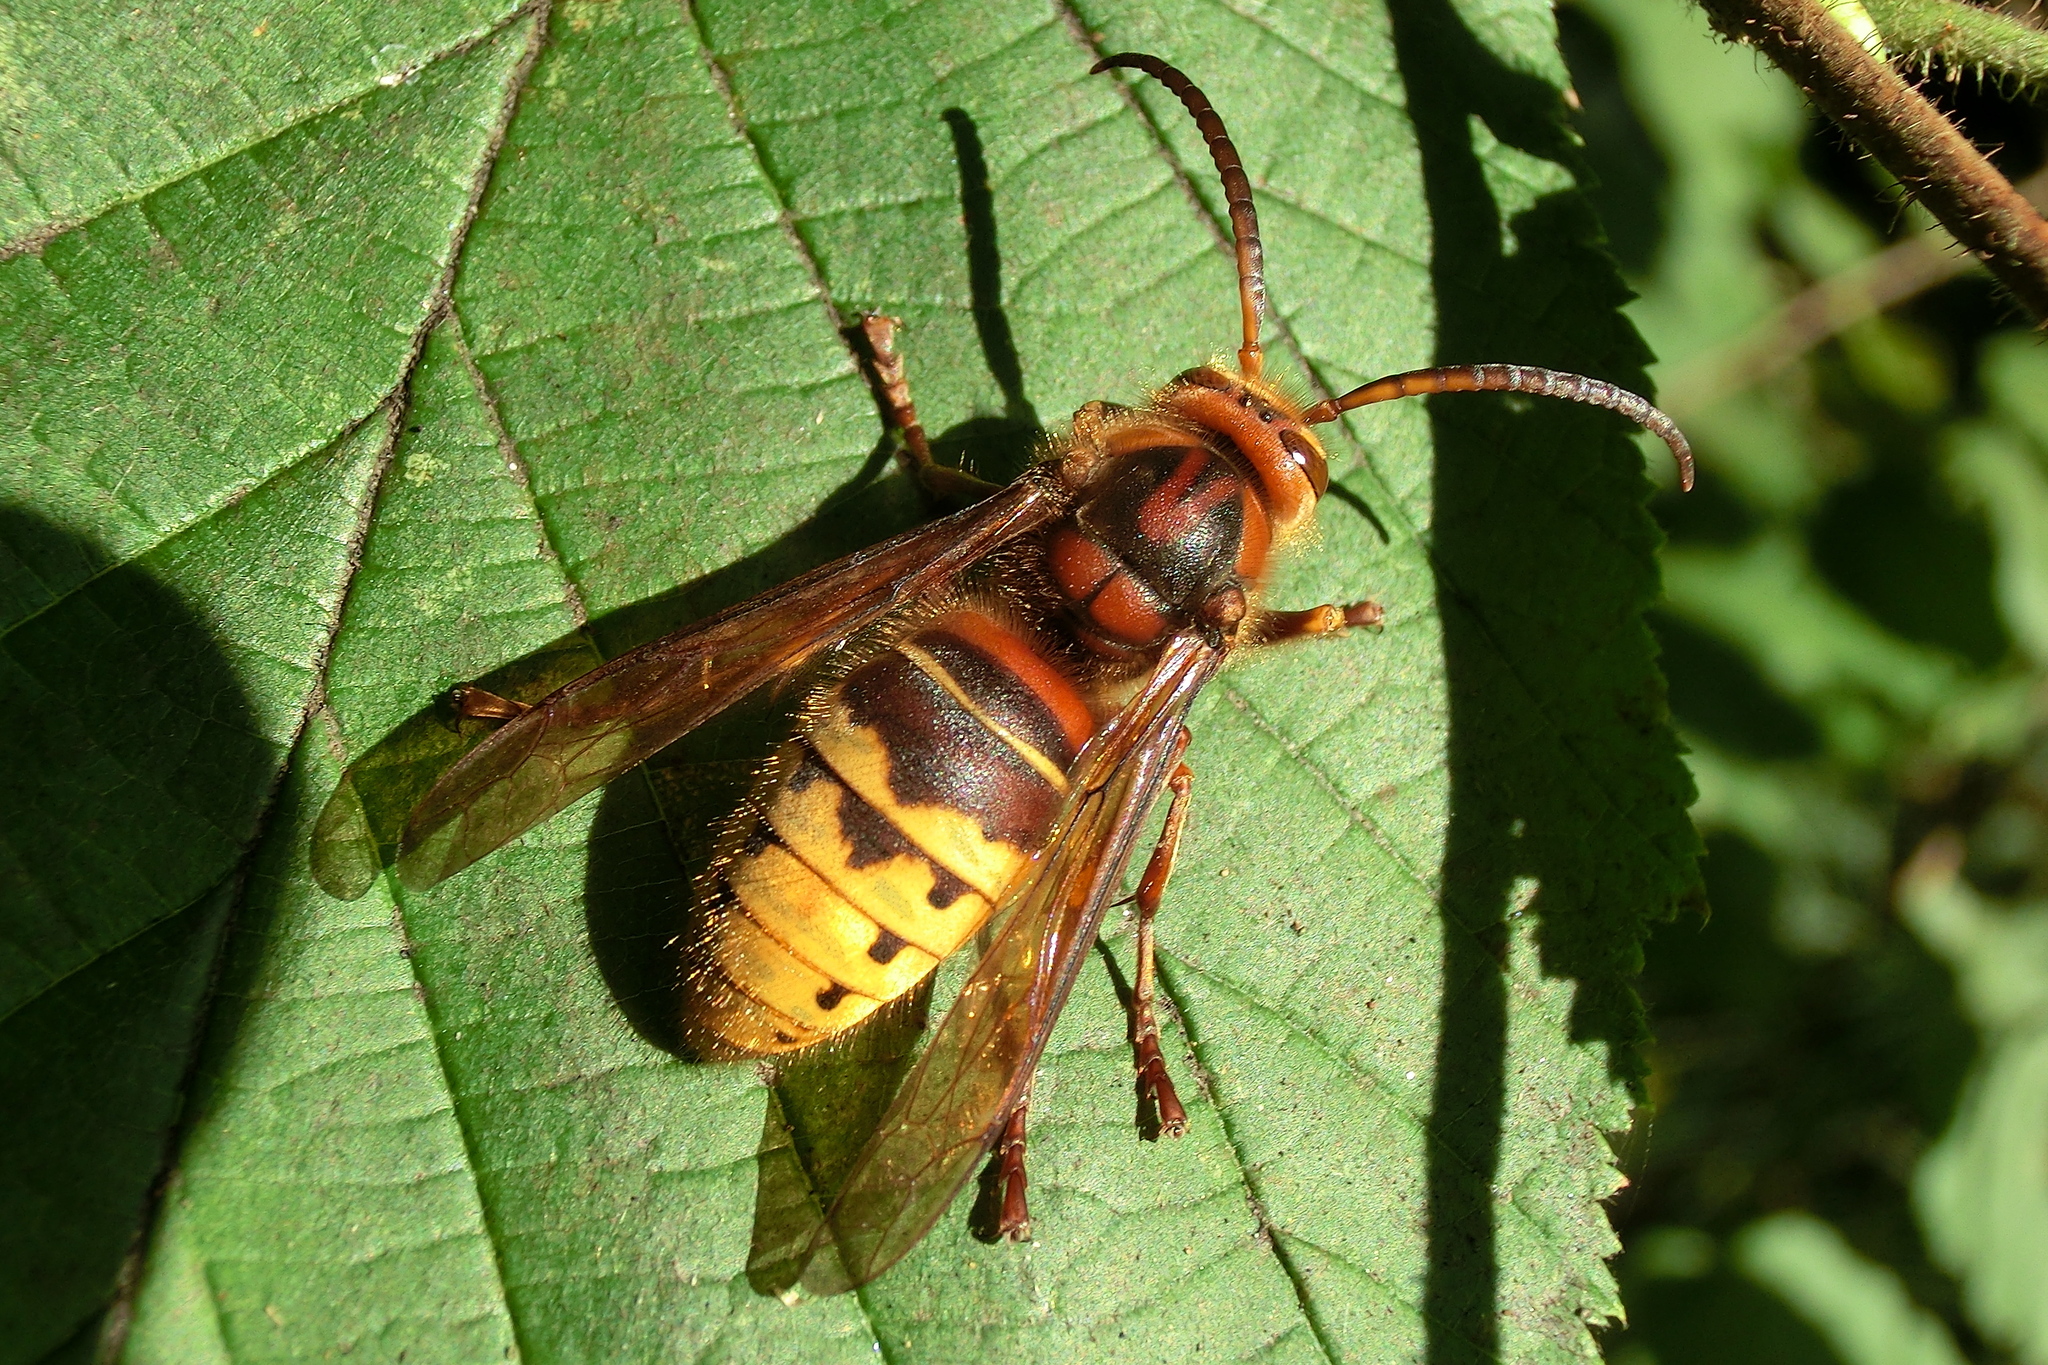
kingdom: Animalia
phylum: Arthropoda
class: Insecta
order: Hymenoptera
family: Vespidae
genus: Vespa
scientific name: Vespa crabro
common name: Hornet
